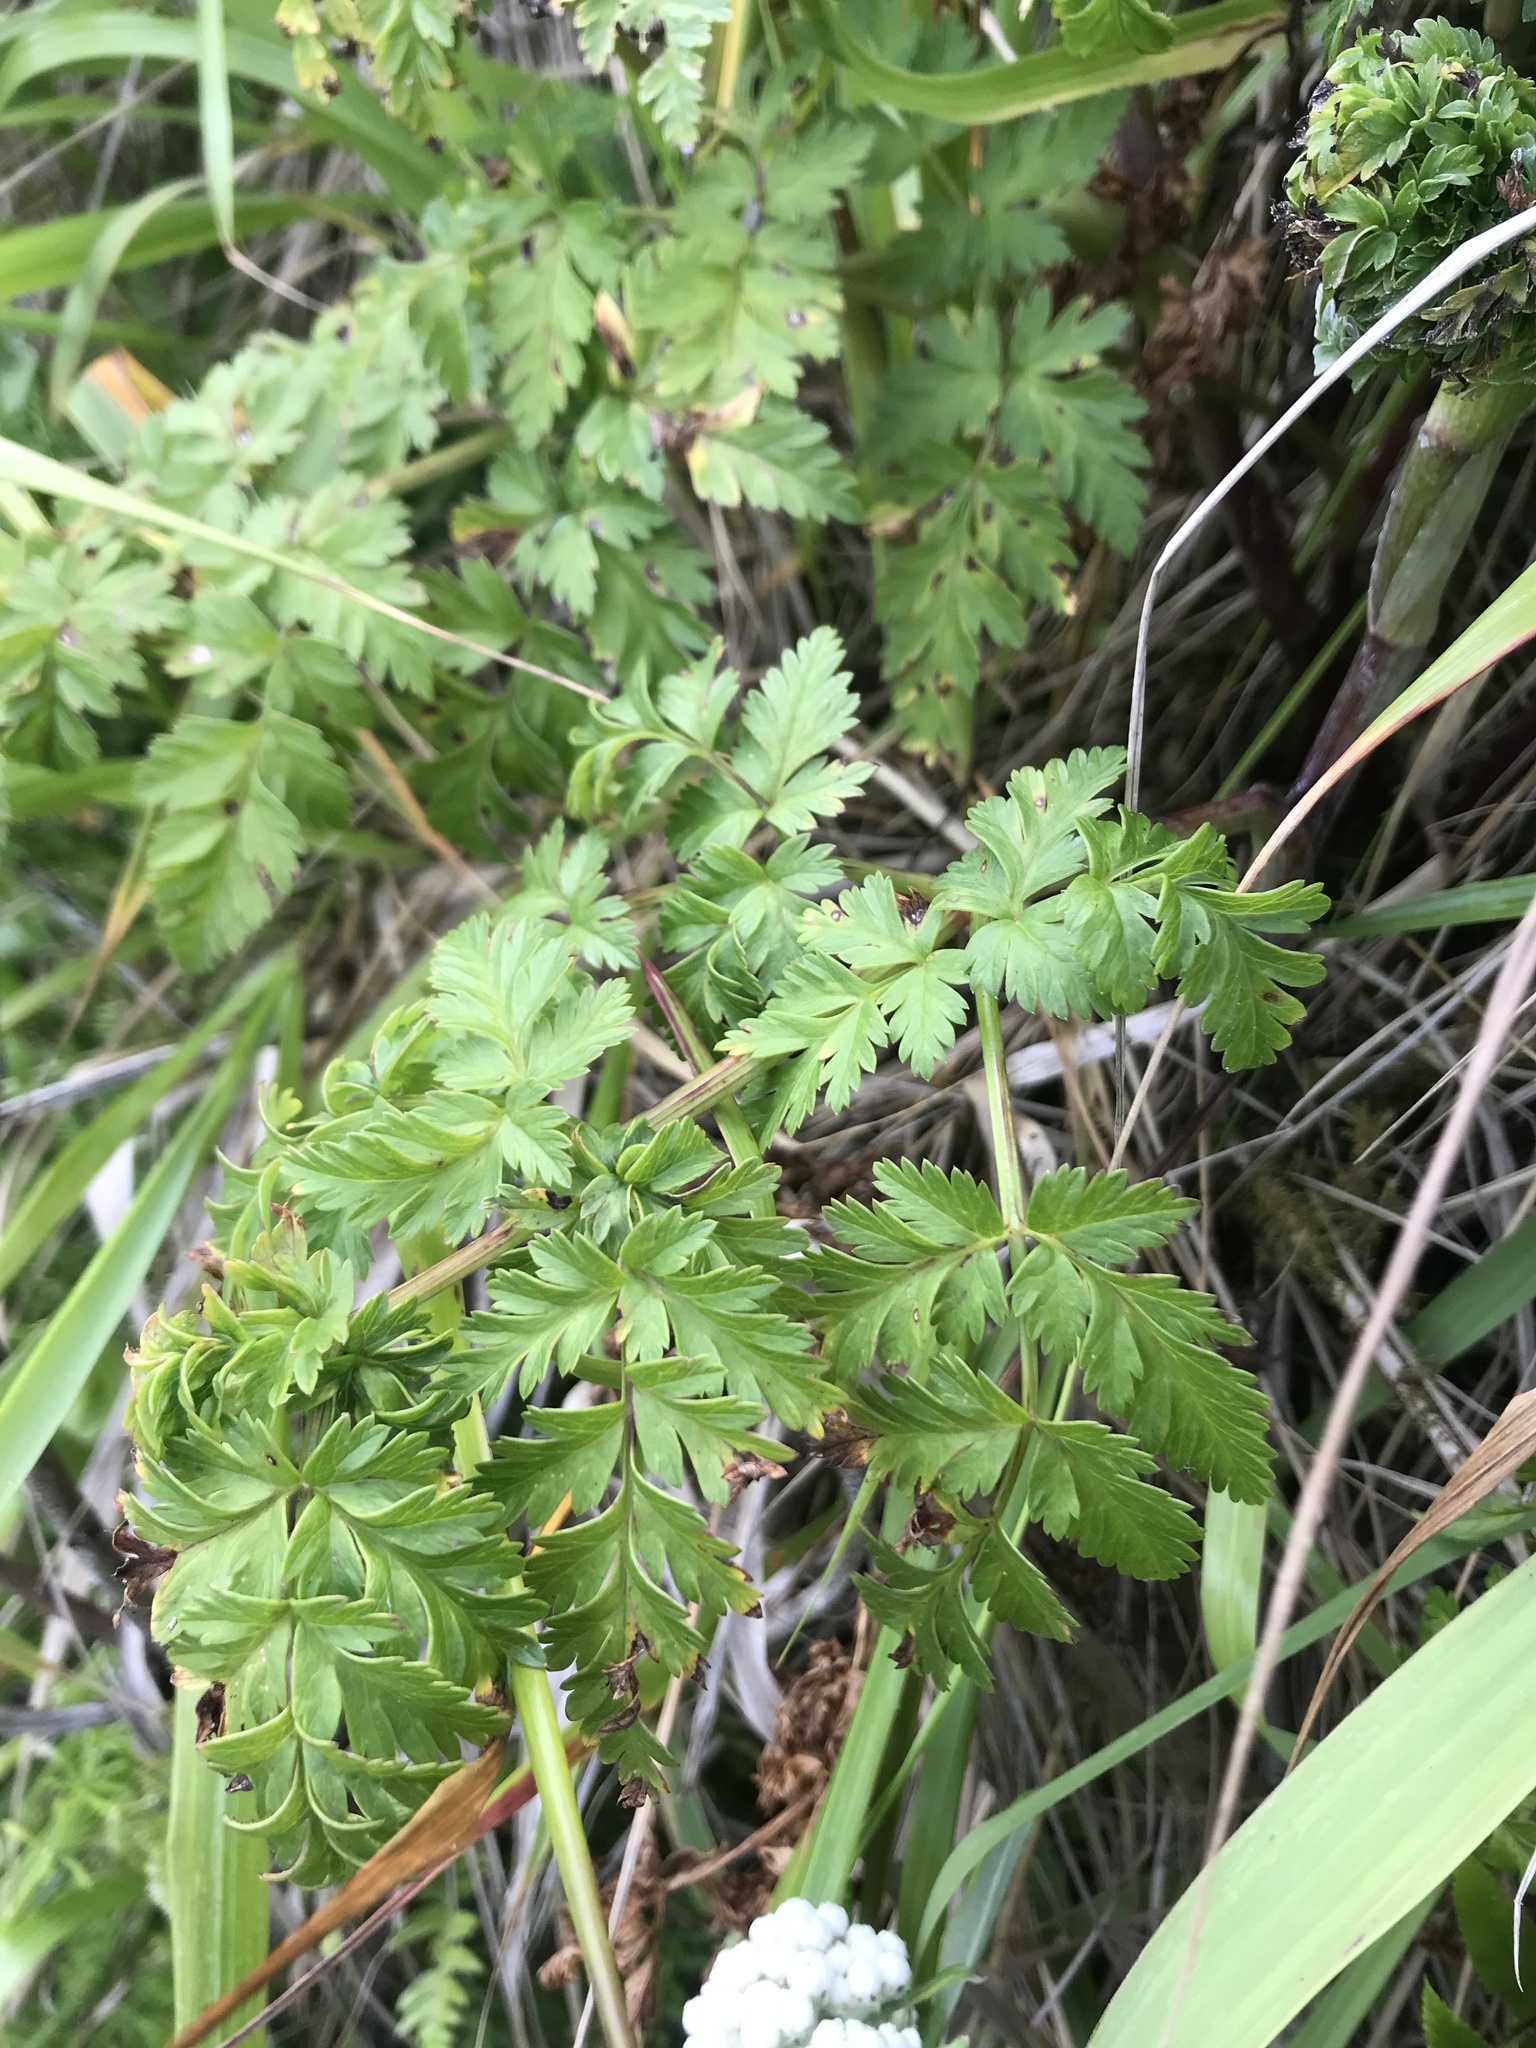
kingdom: Plantae
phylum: Tracheophyta
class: Magnoliopsida
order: Apiales
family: Apiaceae
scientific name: Apiaceae
